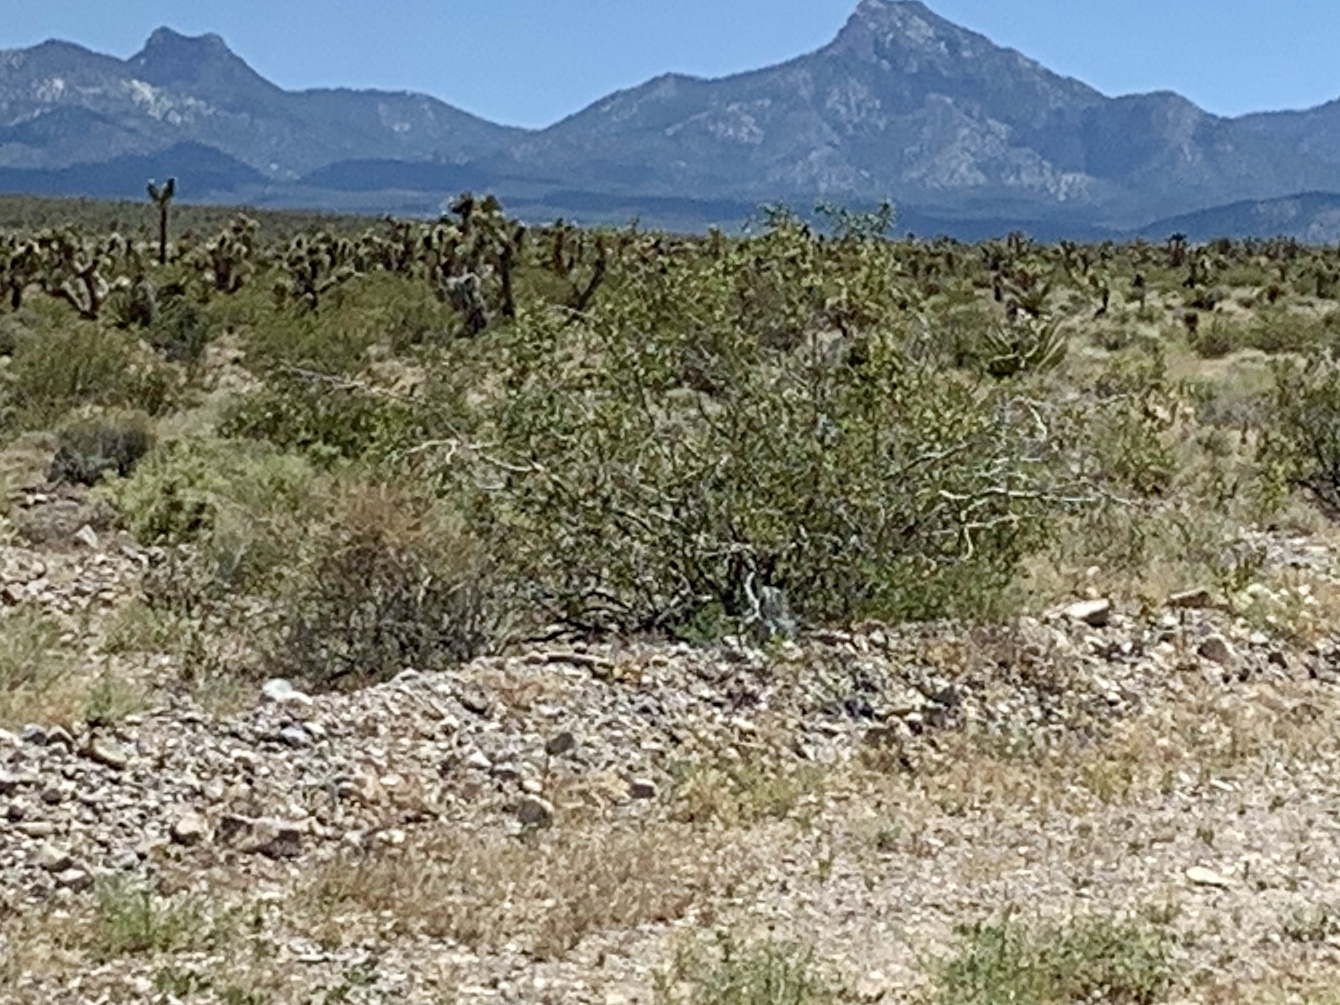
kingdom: Plantae
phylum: Tracheophyta
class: Magnoliopsida
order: Zygophyllales
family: Zygophyllaceae
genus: Larrea
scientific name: Larrea tridentata
